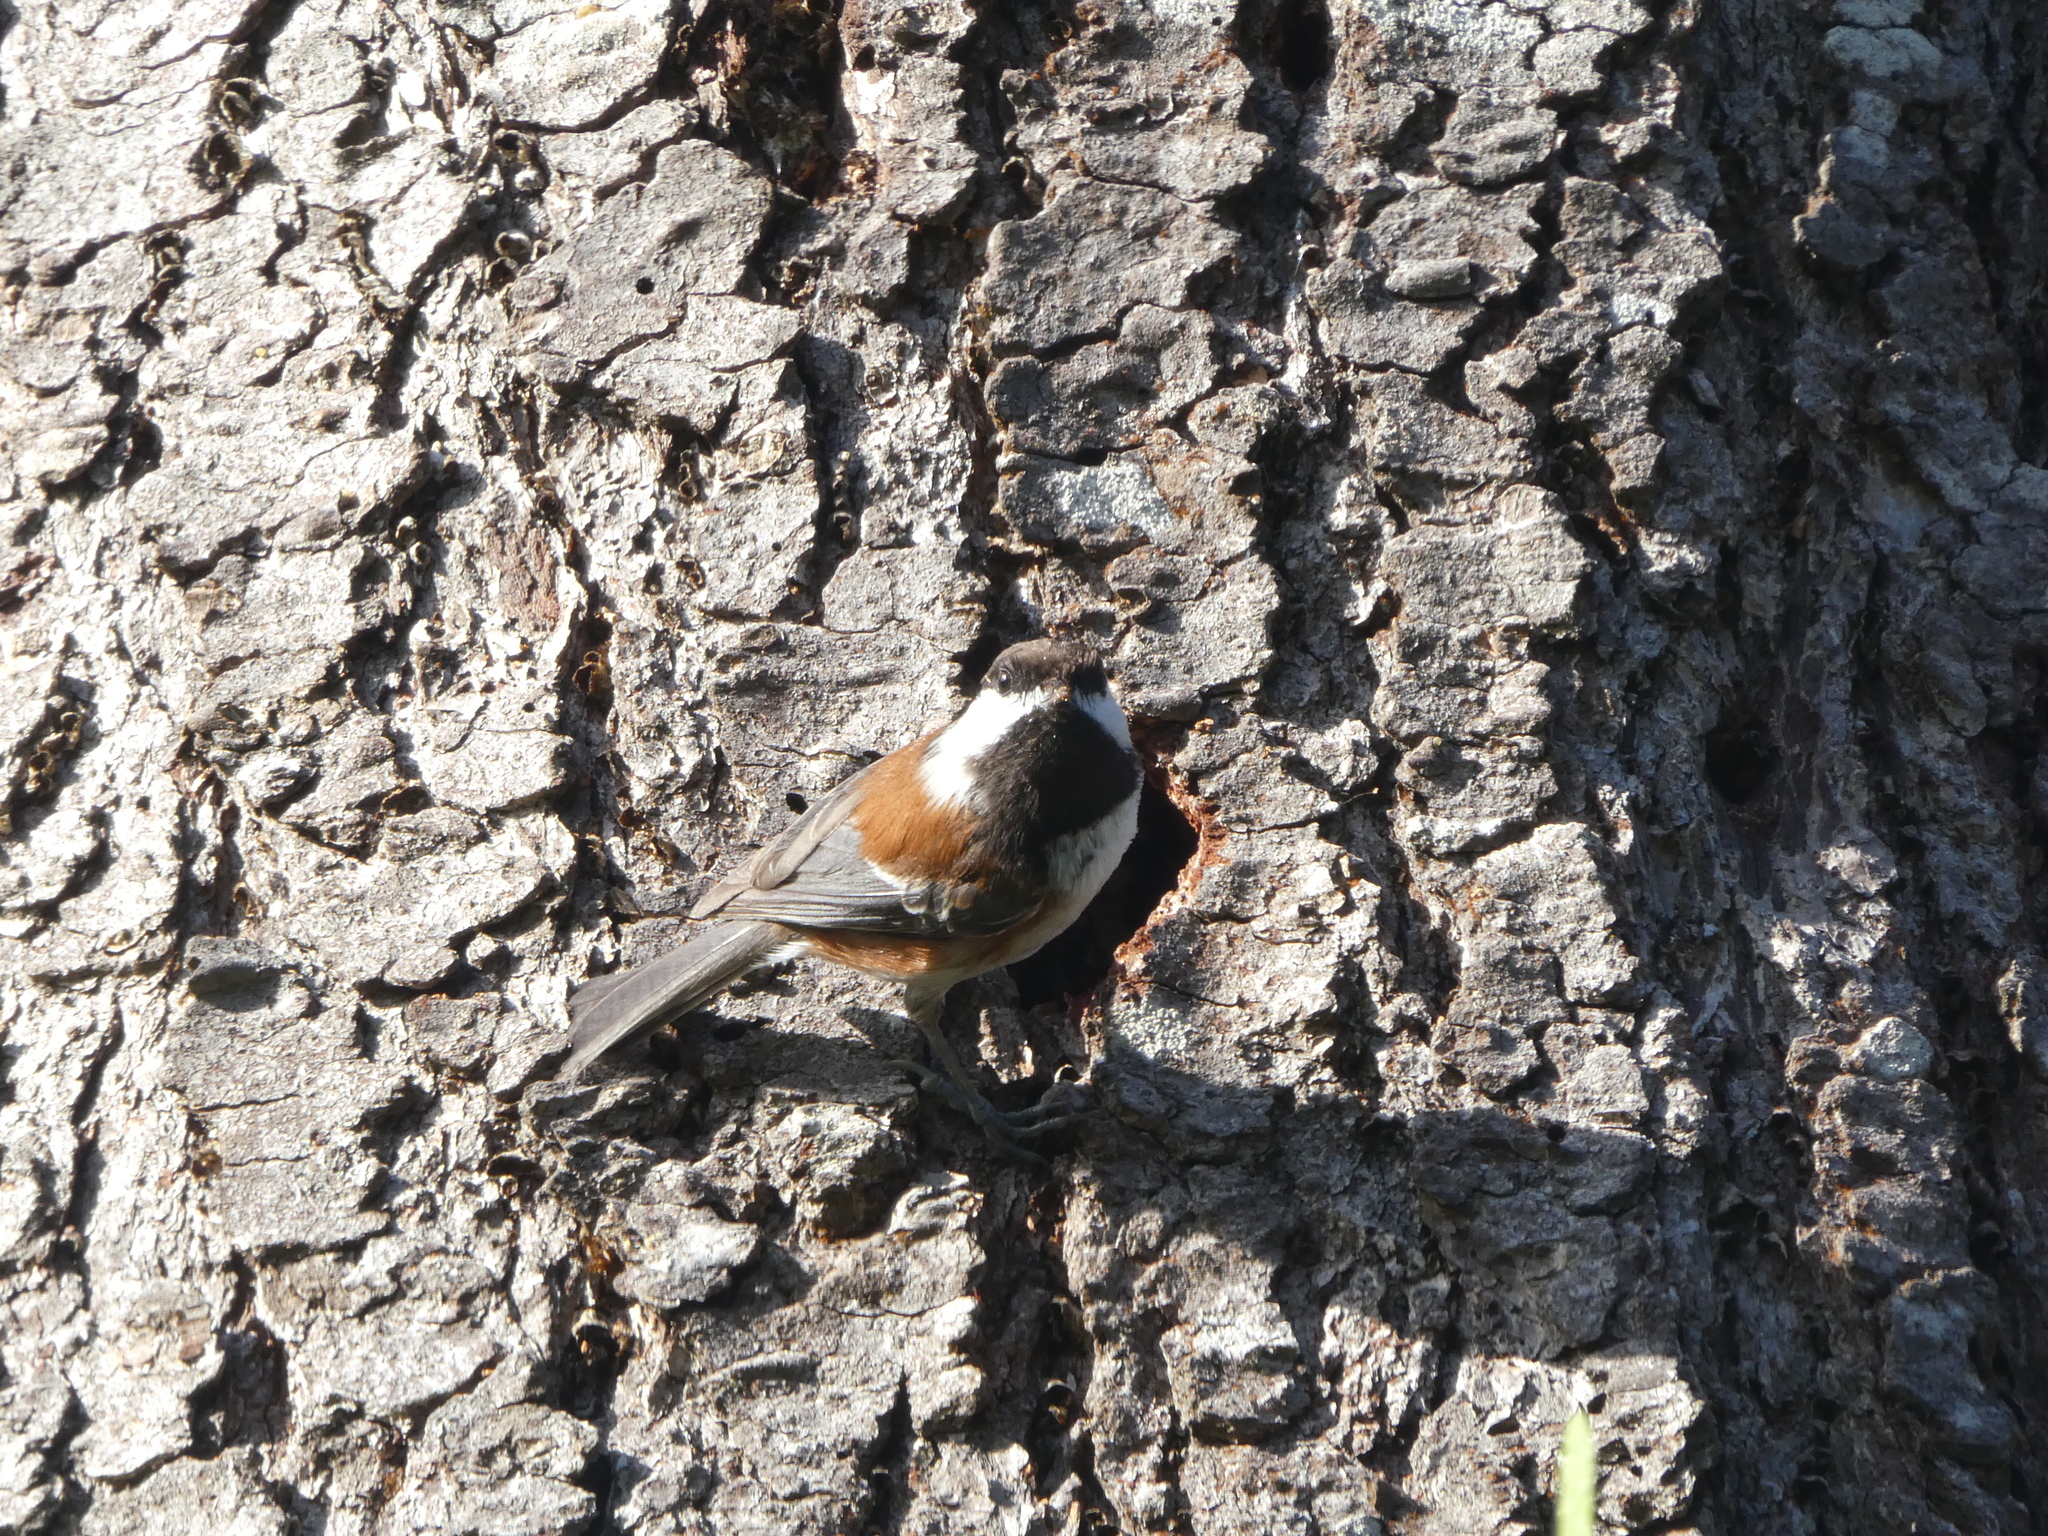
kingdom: Animalia
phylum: Chordata
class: Aves
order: Passeriformes
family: Paridae
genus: Poecile
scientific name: Poecile rufescens
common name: Chestnut-backed chickadee
